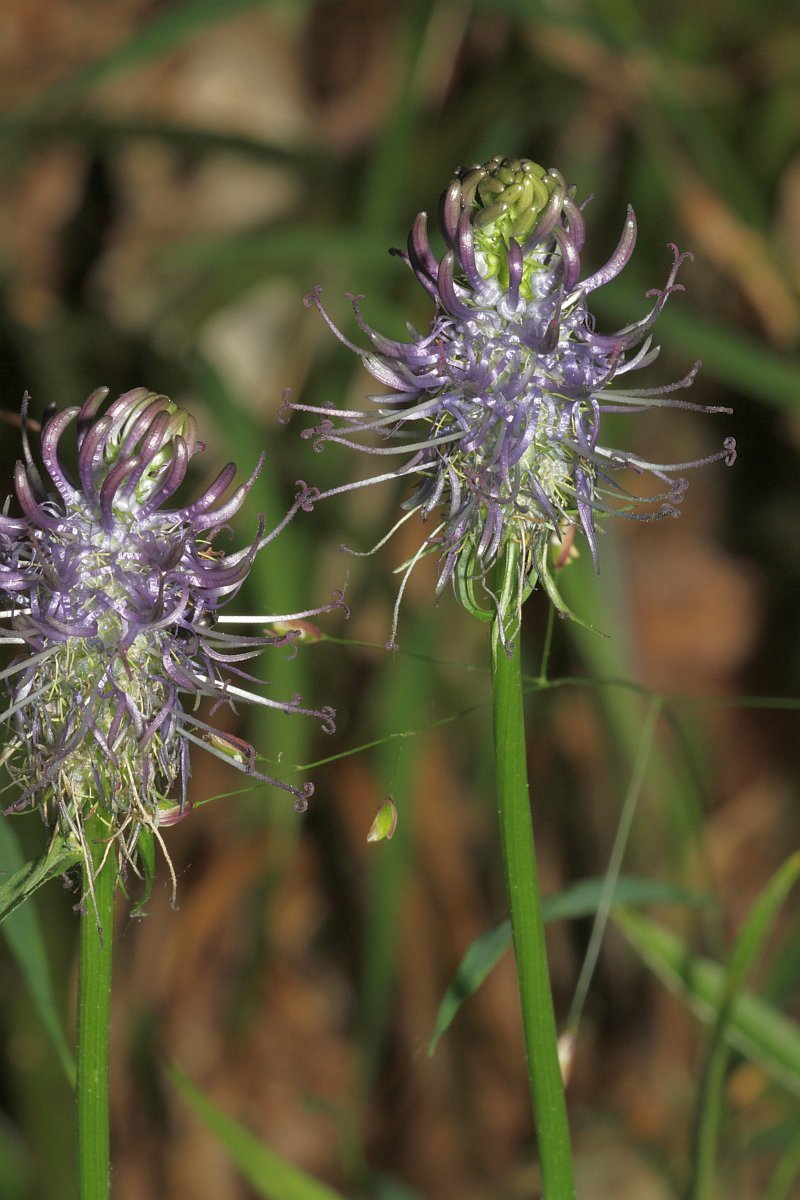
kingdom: Plantae
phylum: Tracheophyta
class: Magnoliopsida
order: Asterales
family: Campanulaceae
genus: Phyteuma
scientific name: Phyteuma nigrum
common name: Black rampion
